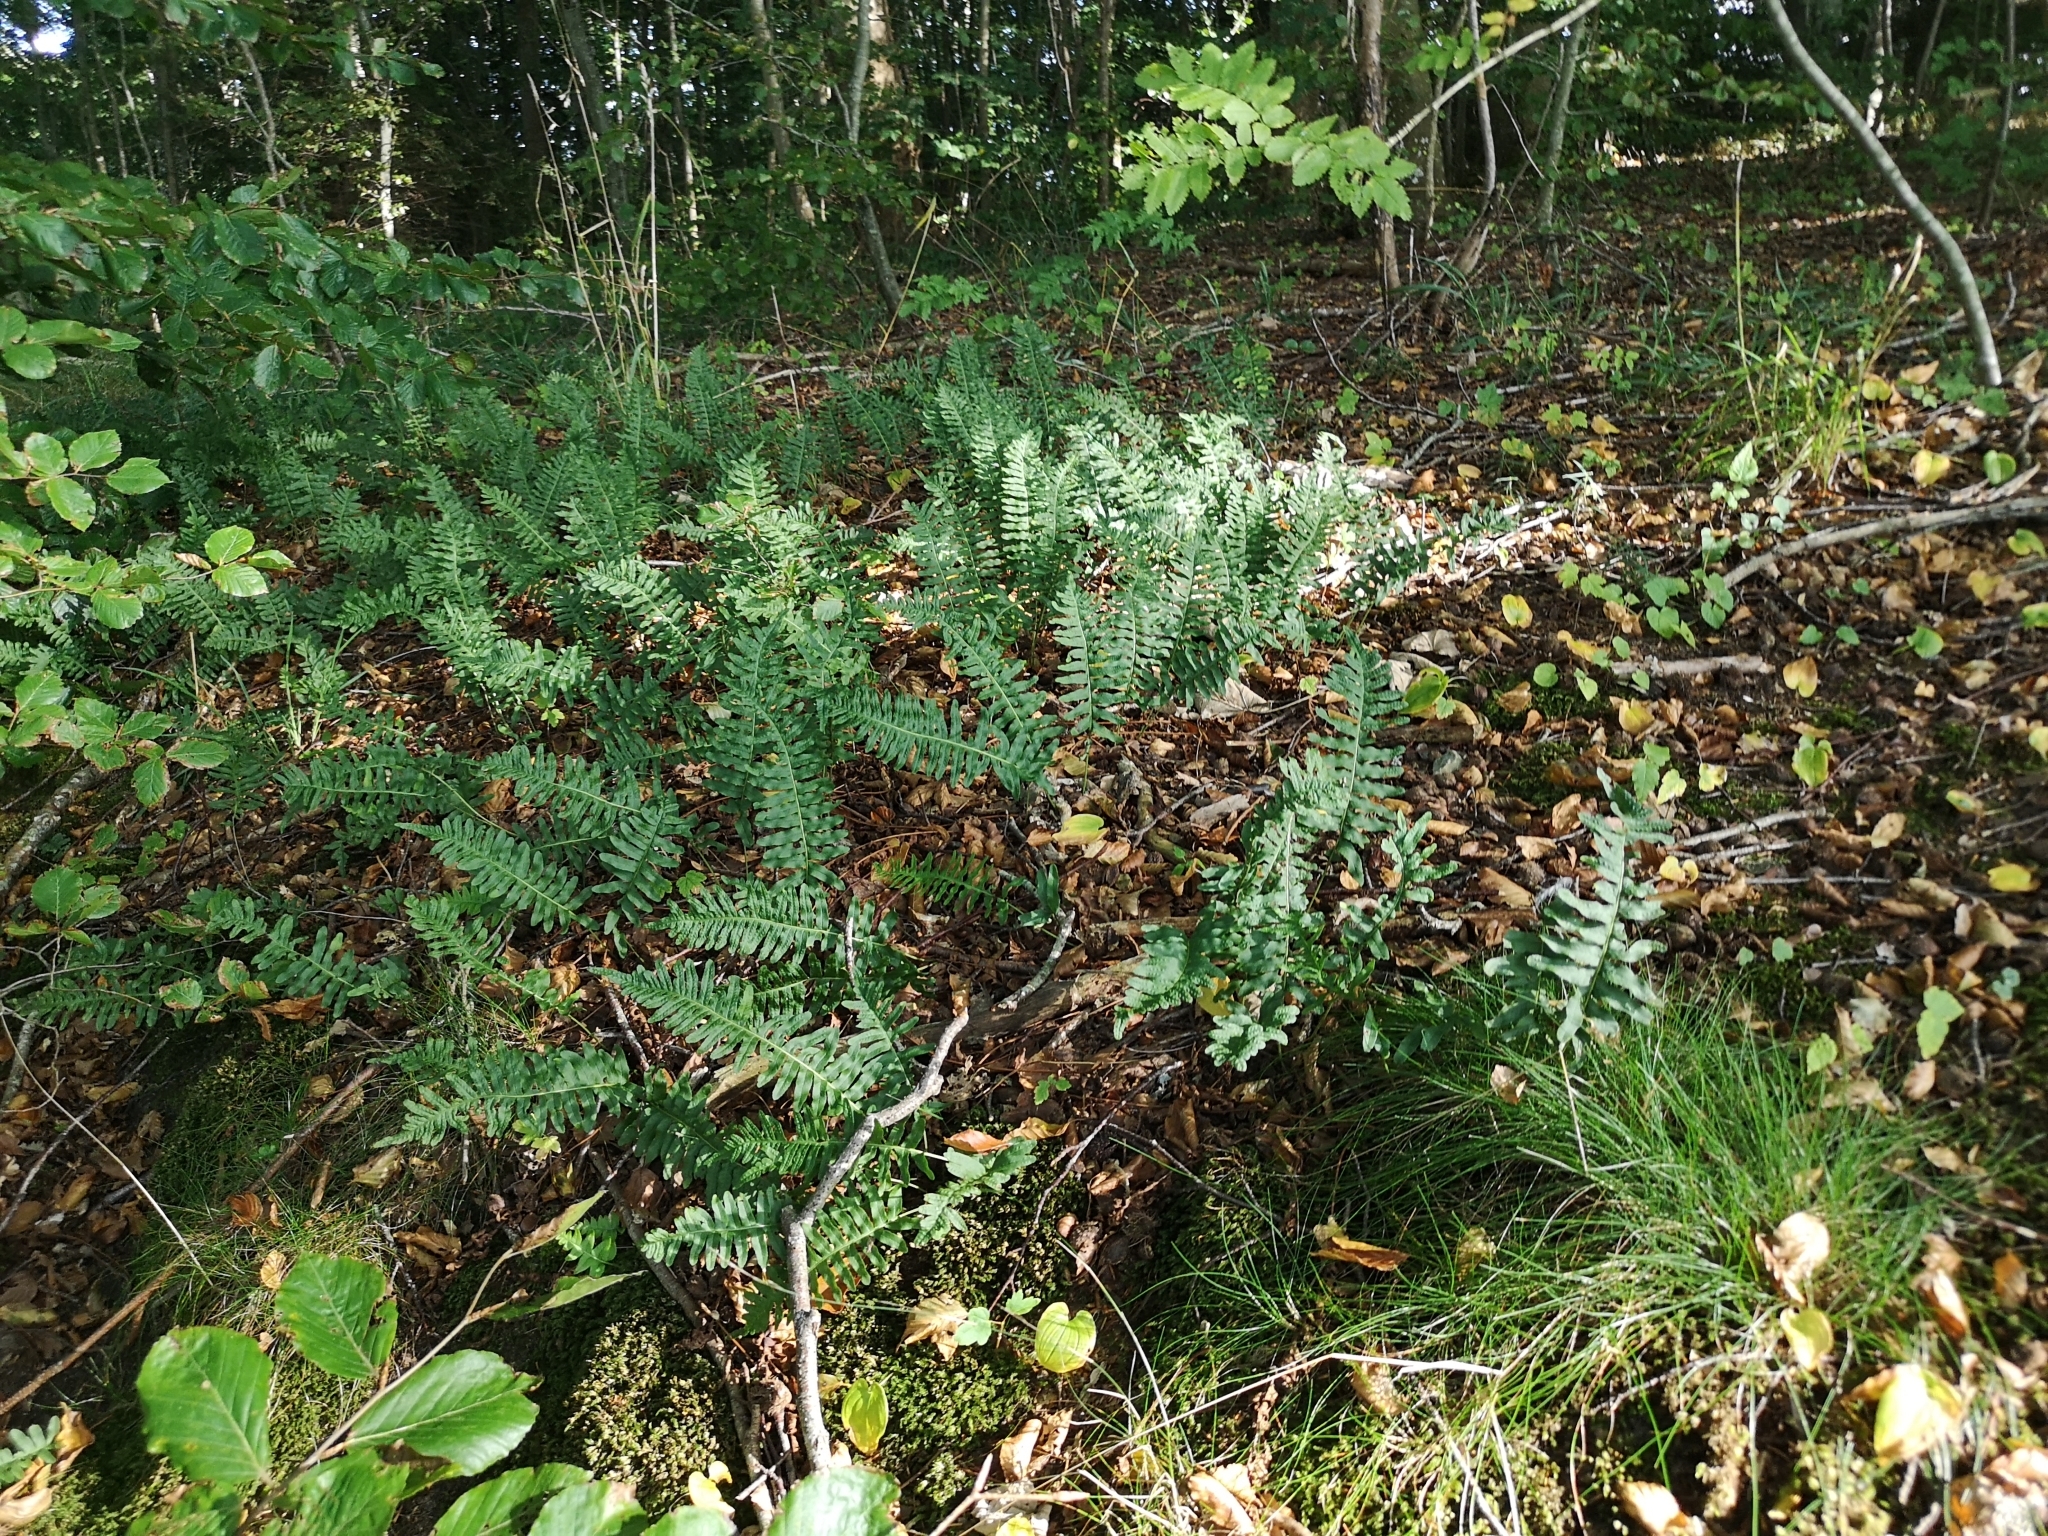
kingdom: Plantae
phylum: Tracheophyta
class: Polypodiopsida
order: Polypodiales
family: Polypodiaceae
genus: Polypodium
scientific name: Polypodium vulgare
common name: Common polypody
